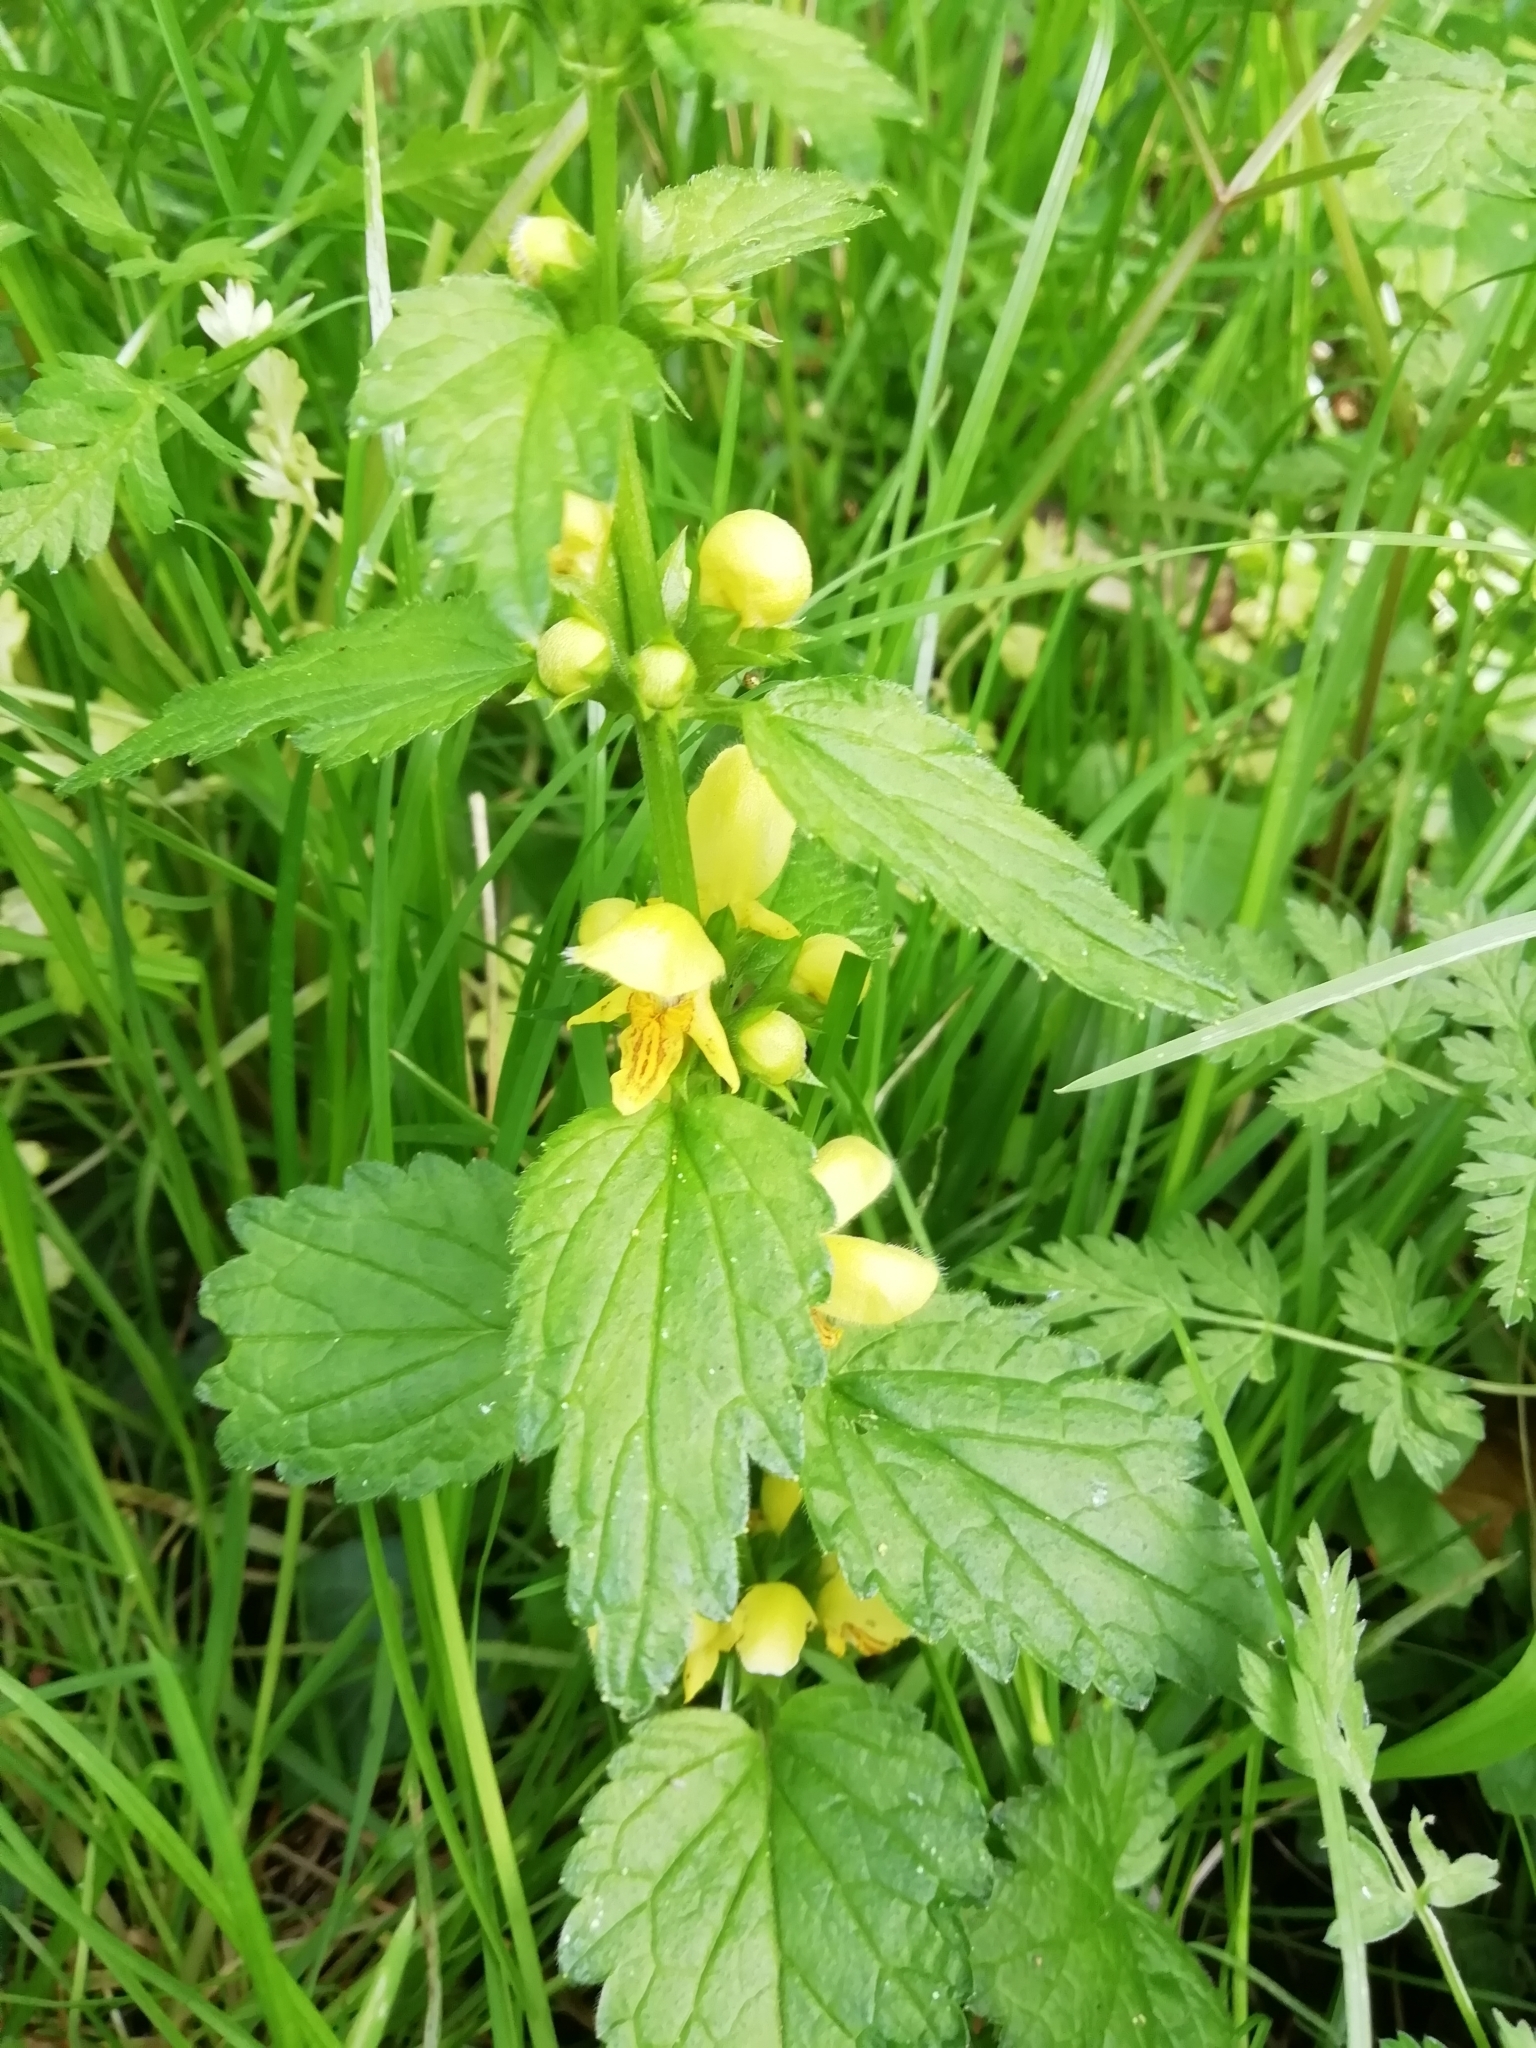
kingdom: Plantae
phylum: Tracheophyta
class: Magnoliopsida
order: Lamiales
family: Lamiaceae
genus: Lamium
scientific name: Lamium galeobdolon
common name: Yellow archangel
